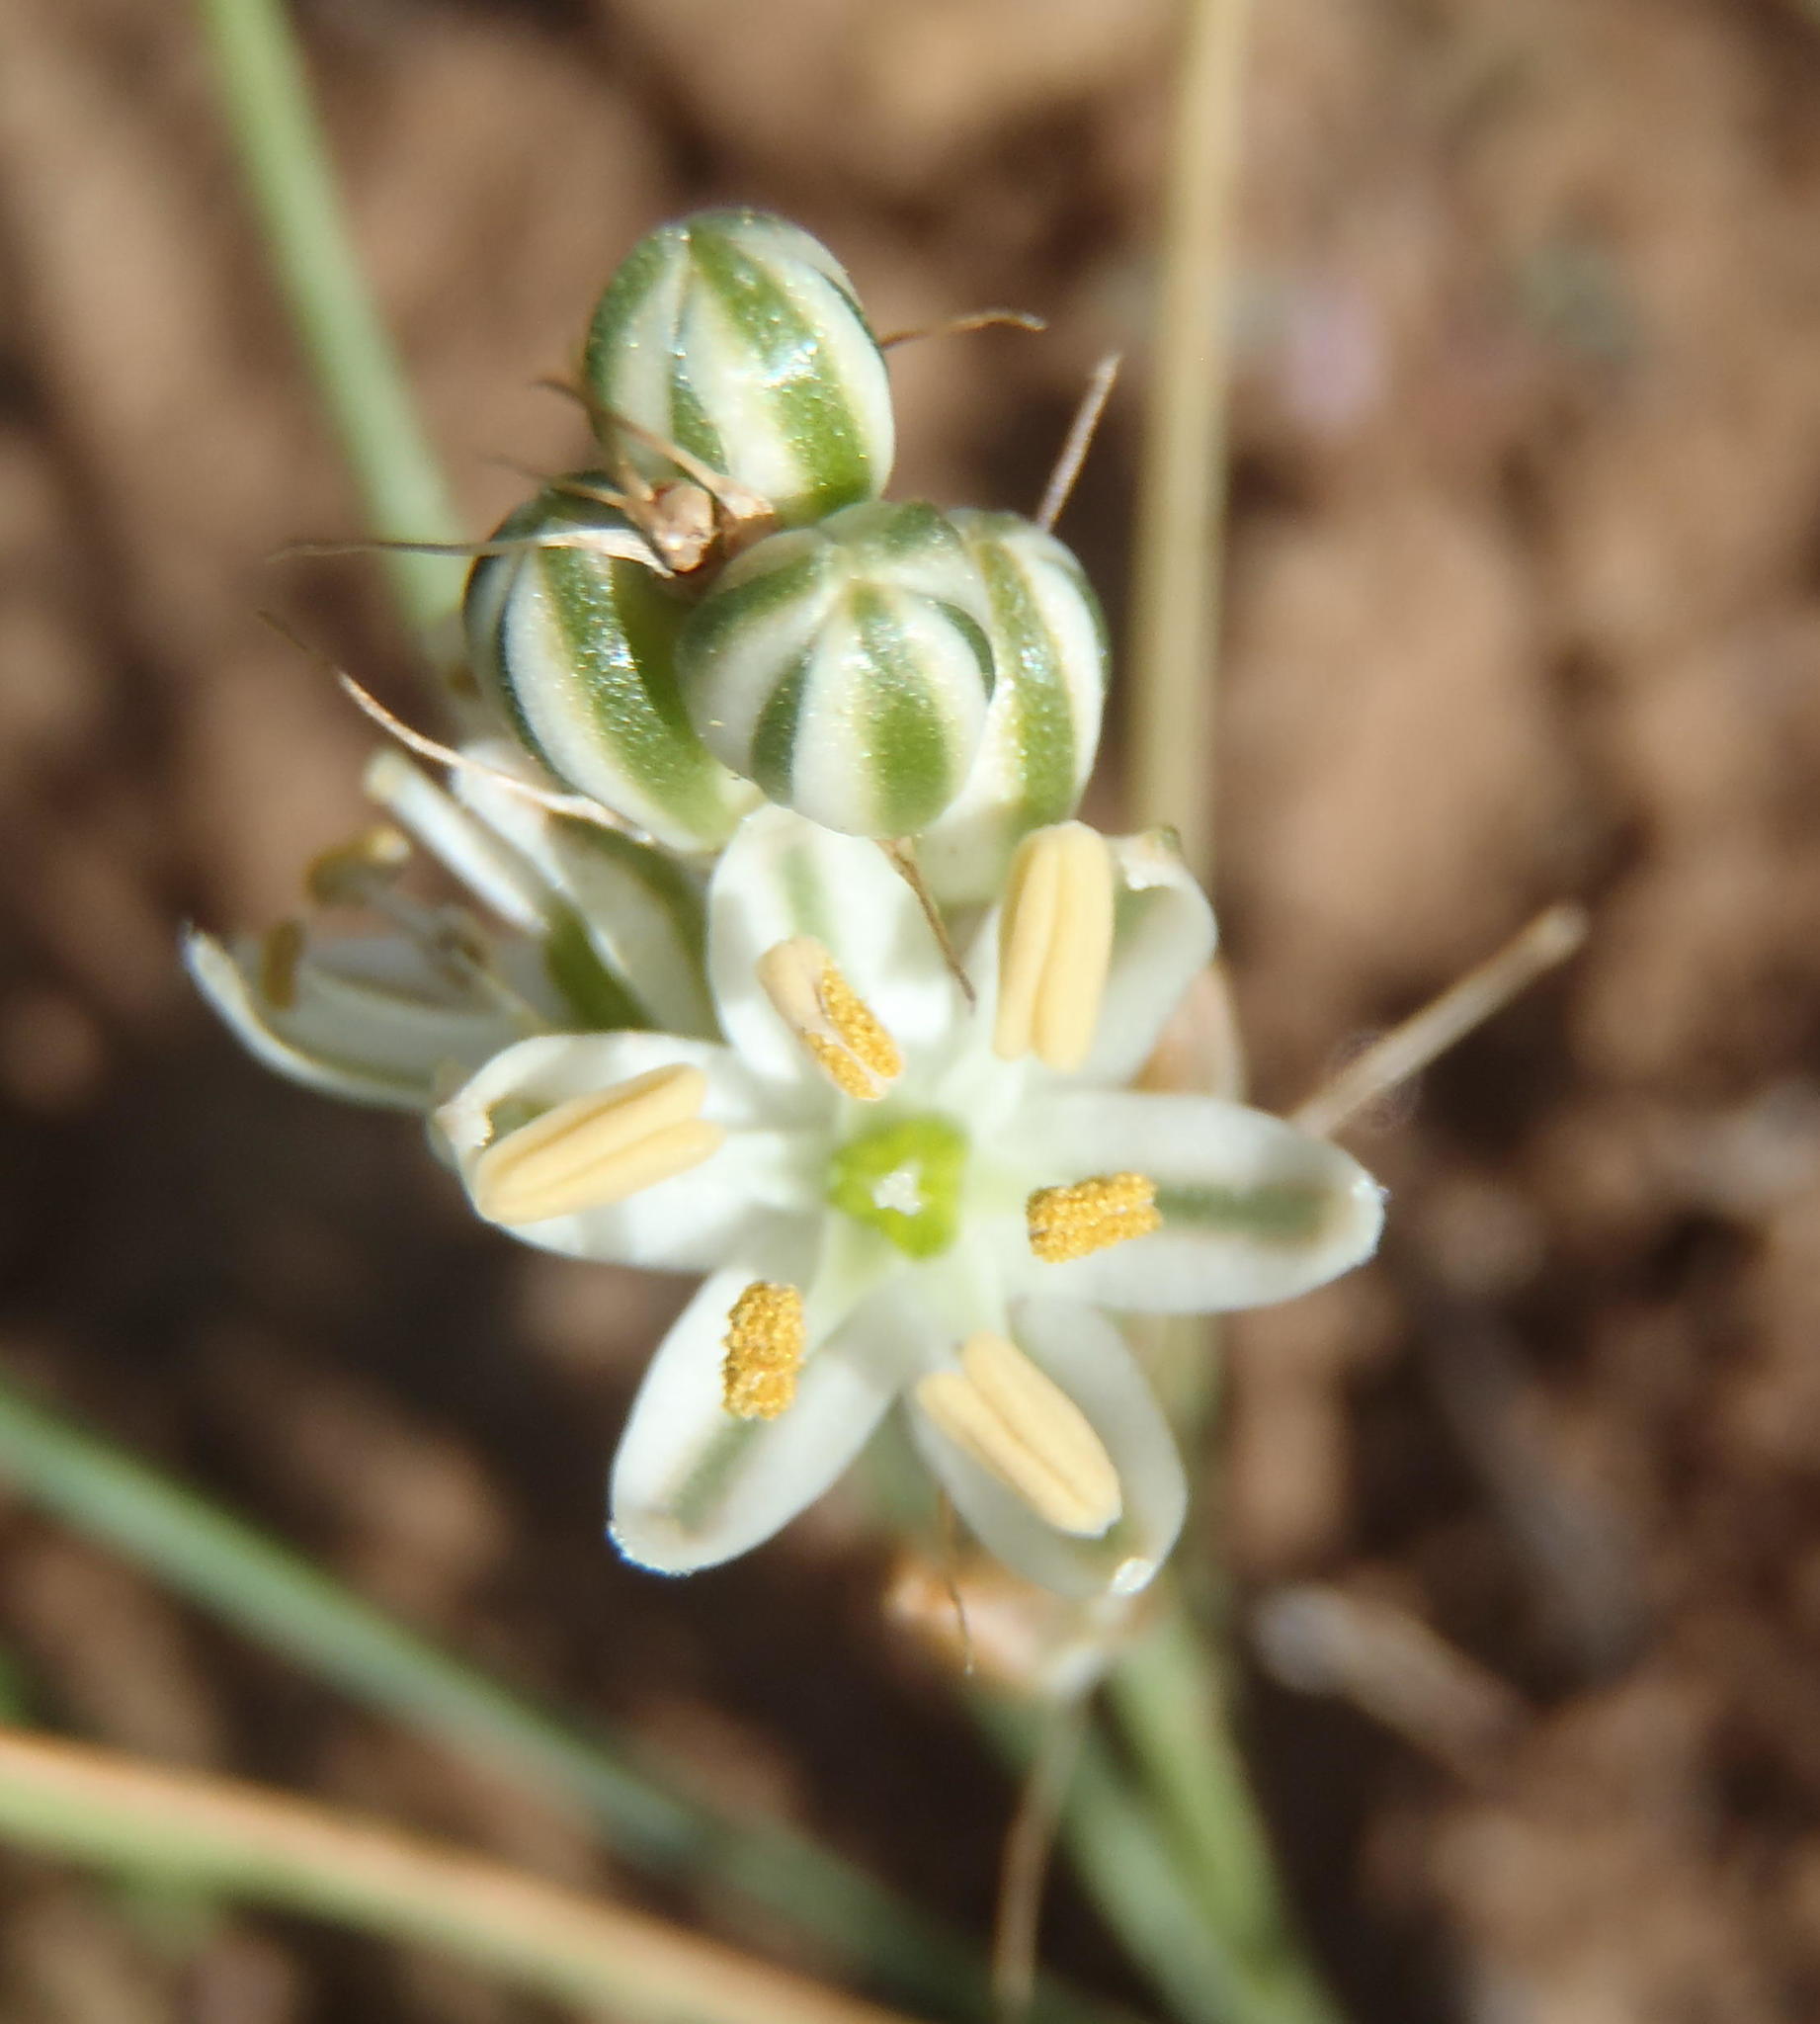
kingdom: Plantae
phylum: Tracheophyta
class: Liliopsida
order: Asparagales
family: Asparagaceae
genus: Albuca
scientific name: Albuca virens
